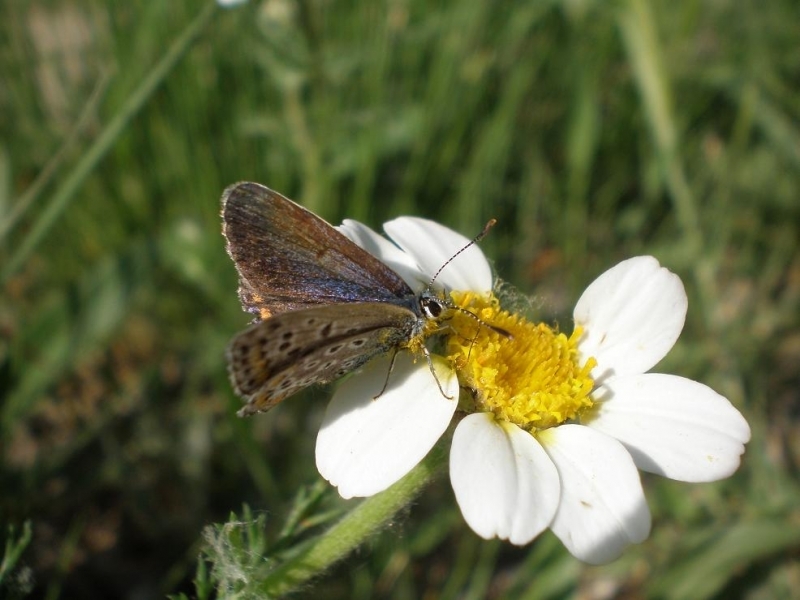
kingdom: Animalia
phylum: Arthropoda
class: Insecta
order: Lepidoptera
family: Lycaenidae
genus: Polyommatus
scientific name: Polyommatus icarus
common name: Common blue
